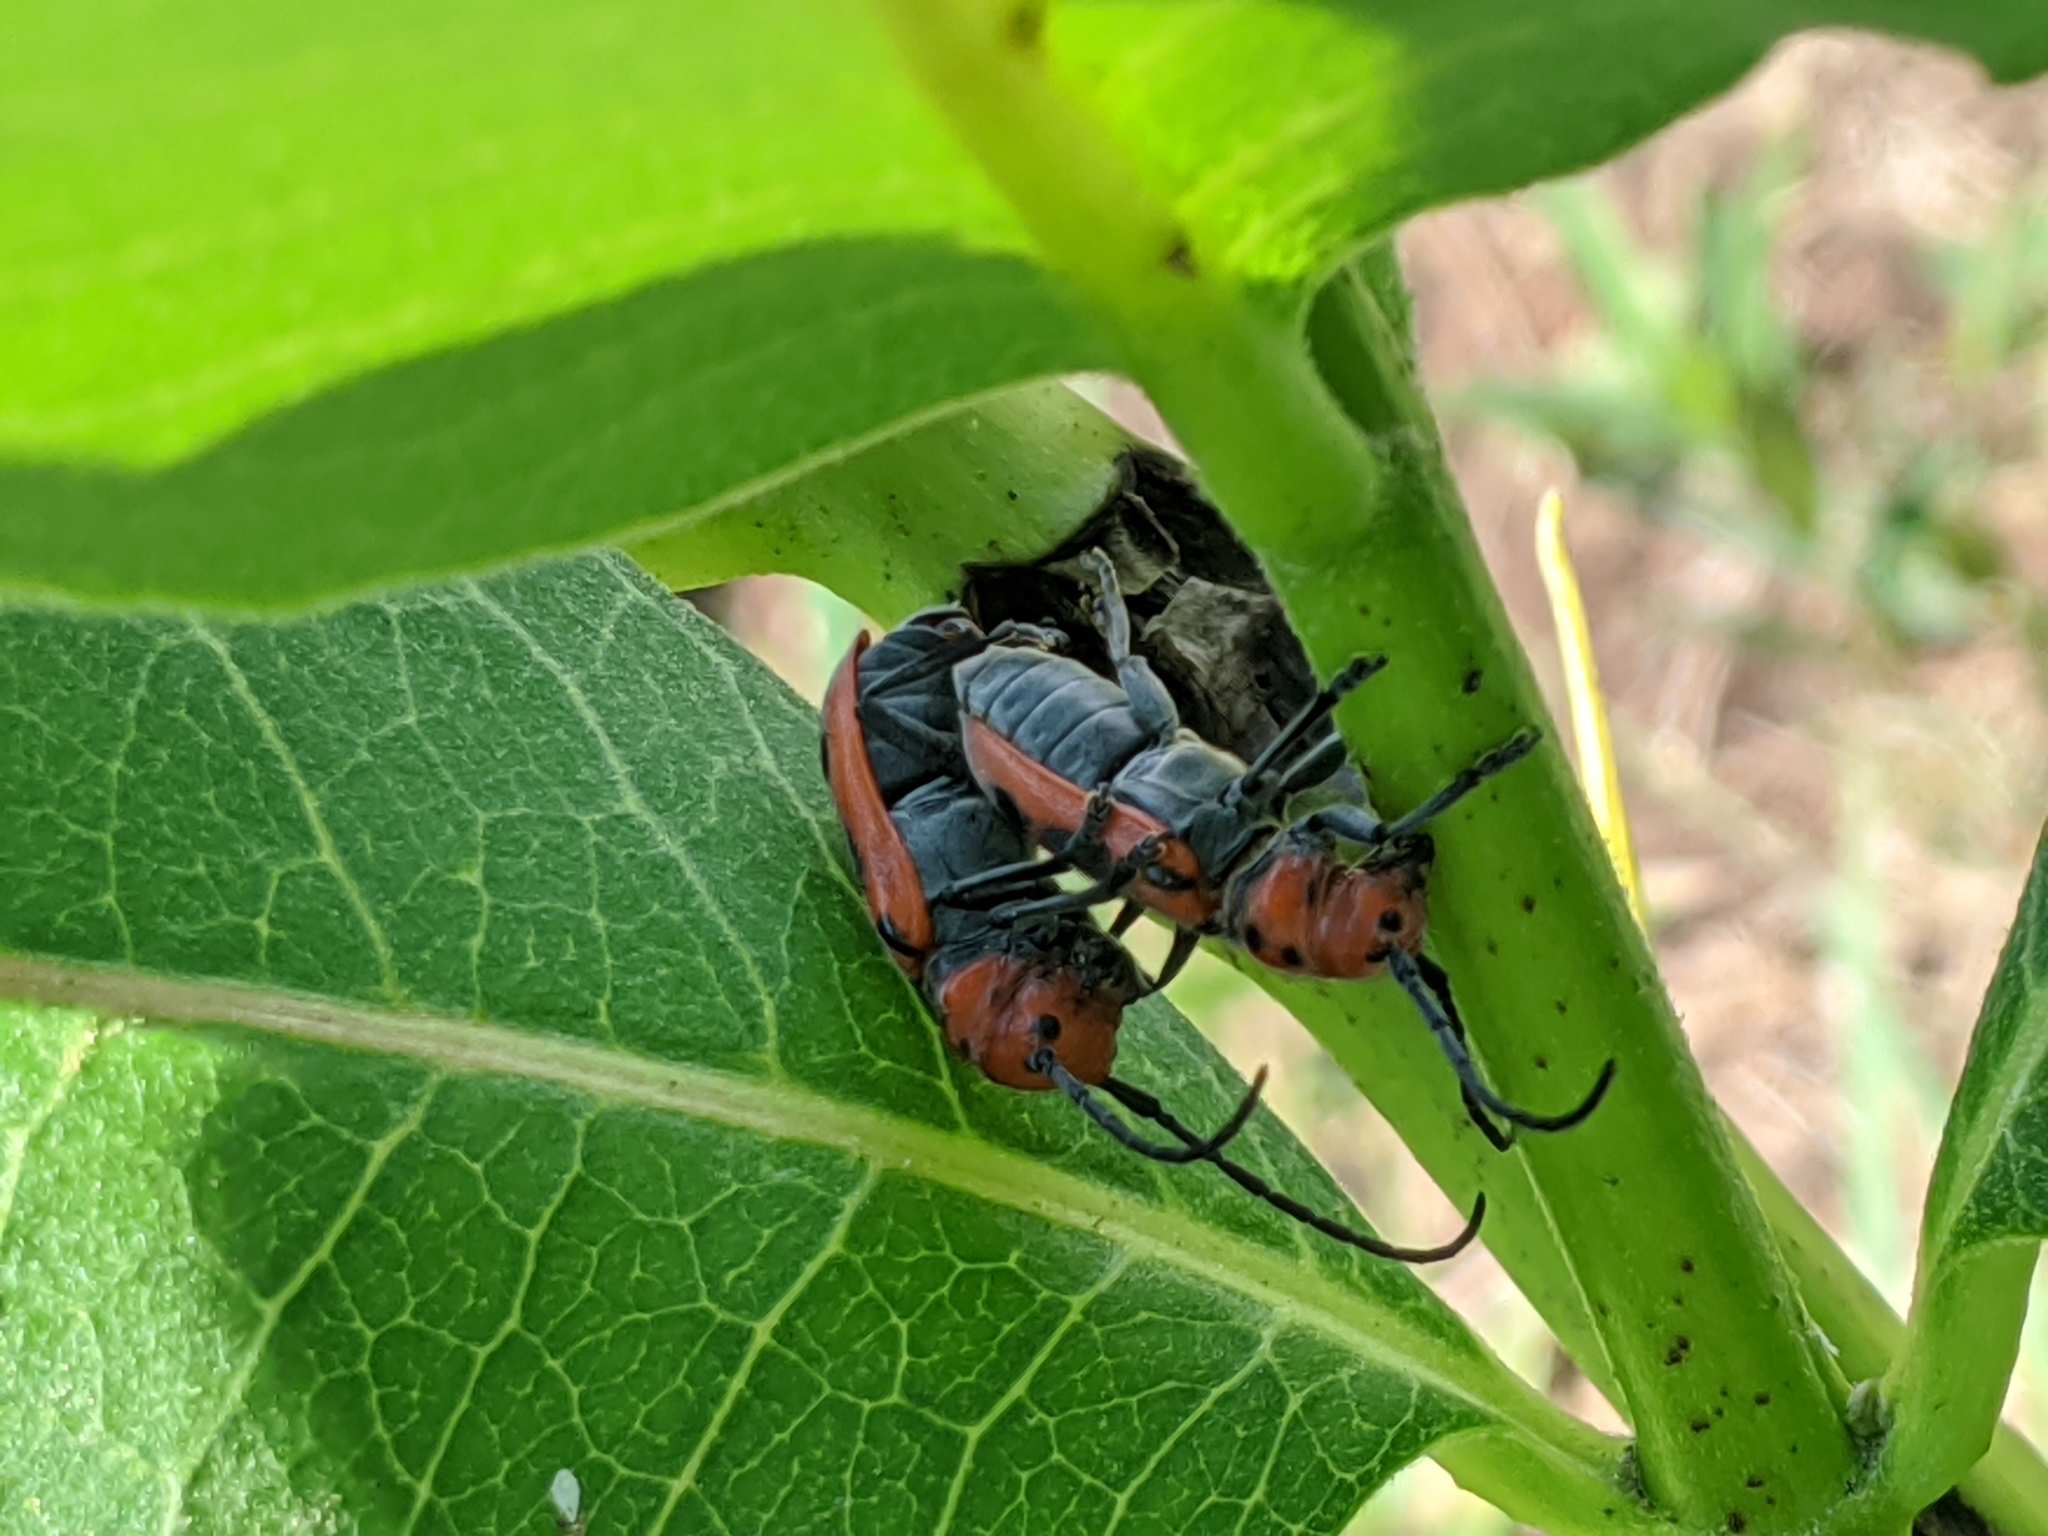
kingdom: Animalia
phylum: Arthropoda
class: Insecta
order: Coleoptera
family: Cerambycidae
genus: Tetraopes
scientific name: Tetraopes tetrophthalmus
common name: Red milkweed beetle
